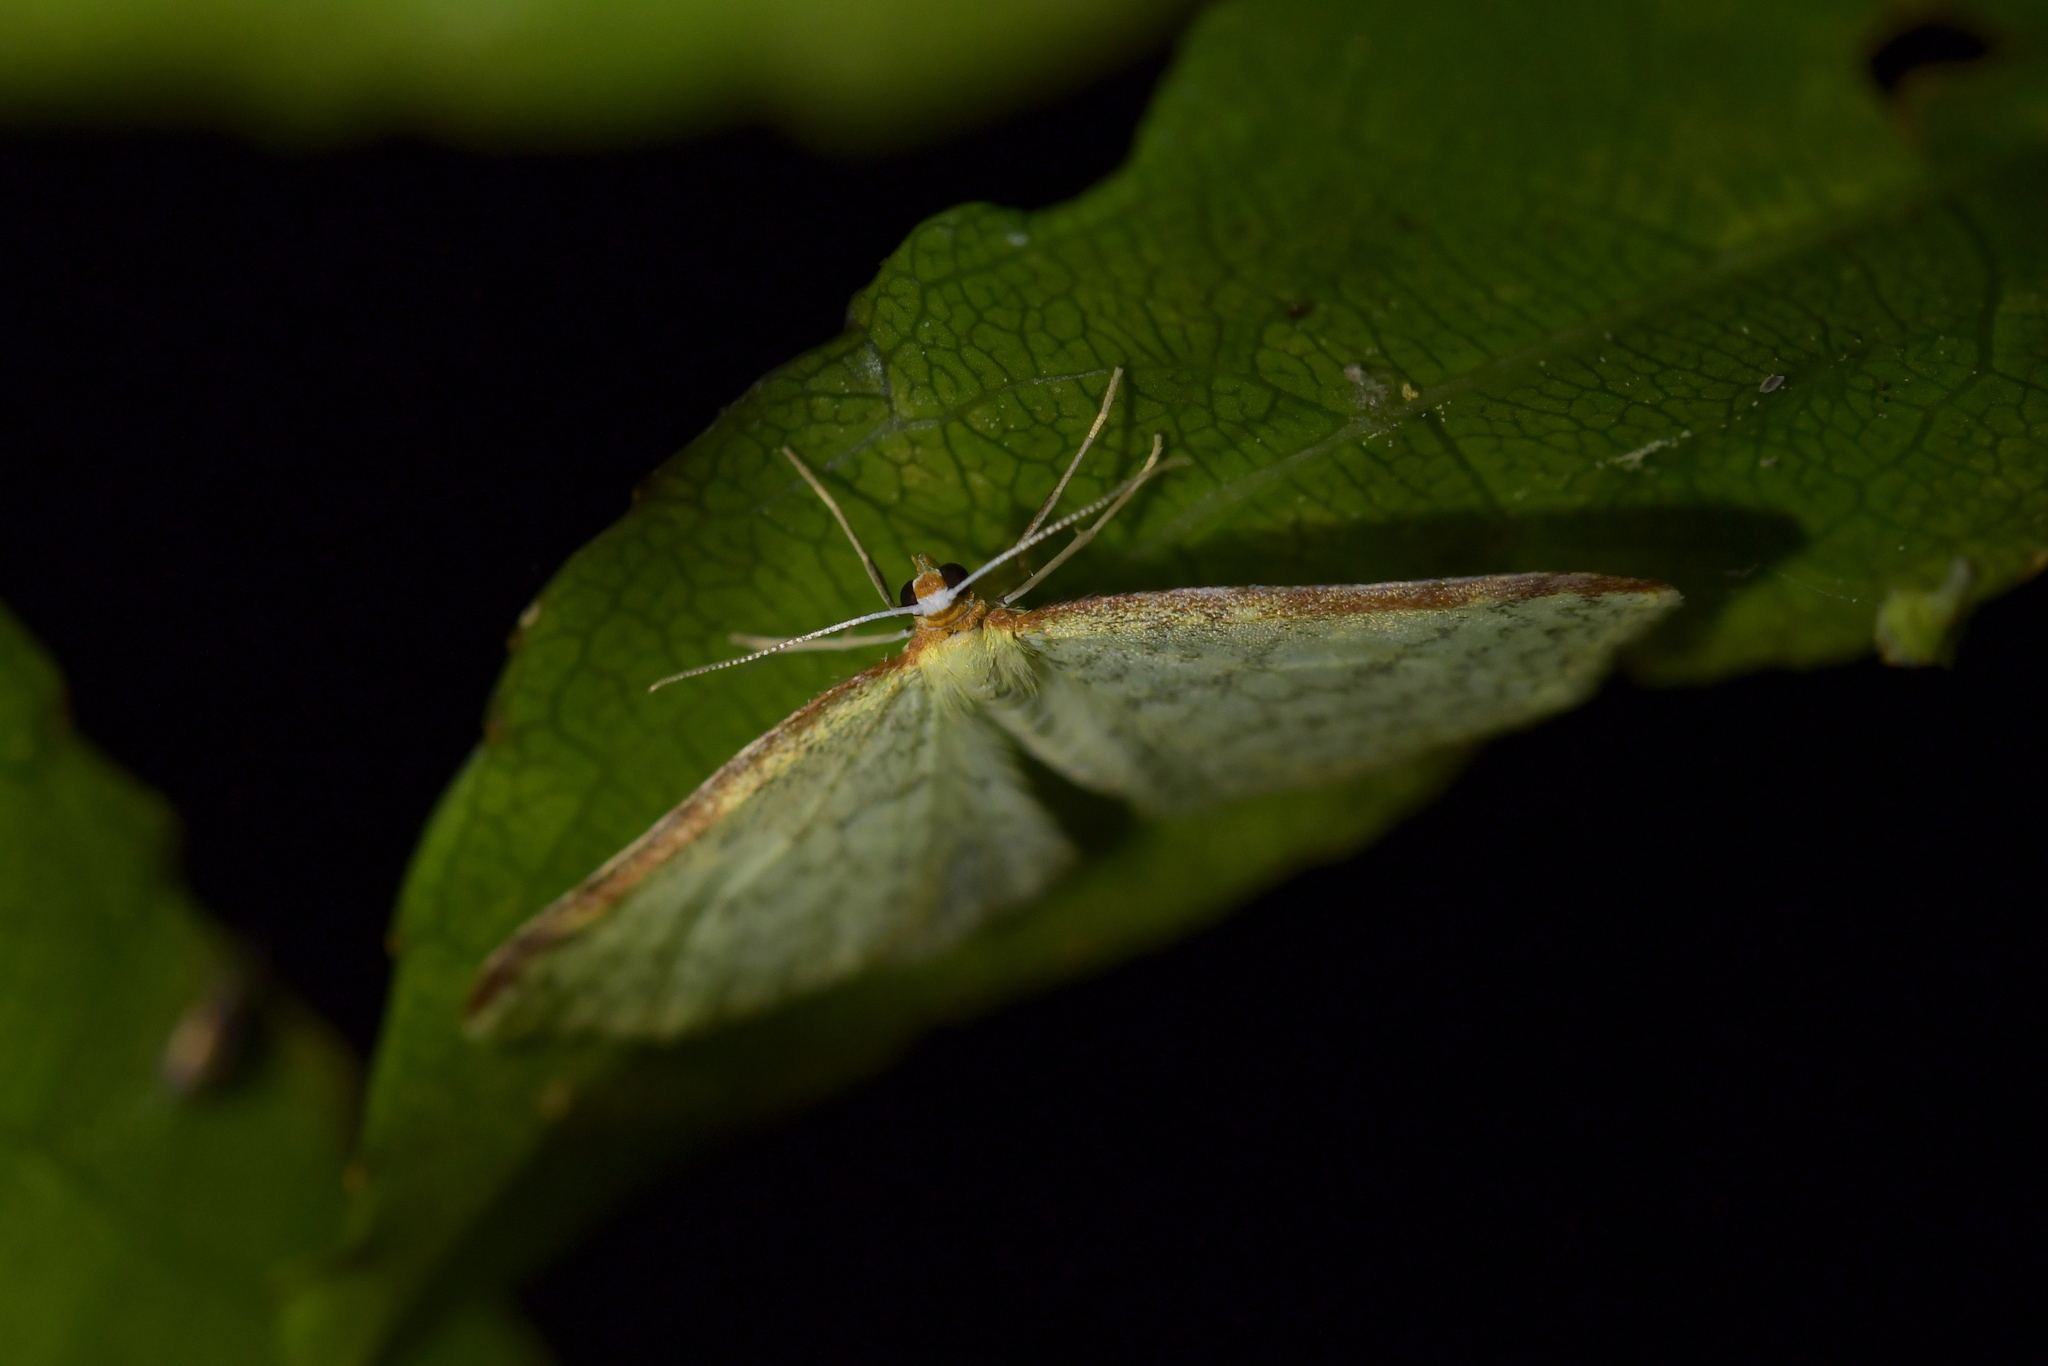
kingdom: Animalia
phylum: Arthropoda
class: Insecta
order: Lepidoptera
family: Geometridae
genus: Epiphryne
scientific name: Epiphryne undosata
